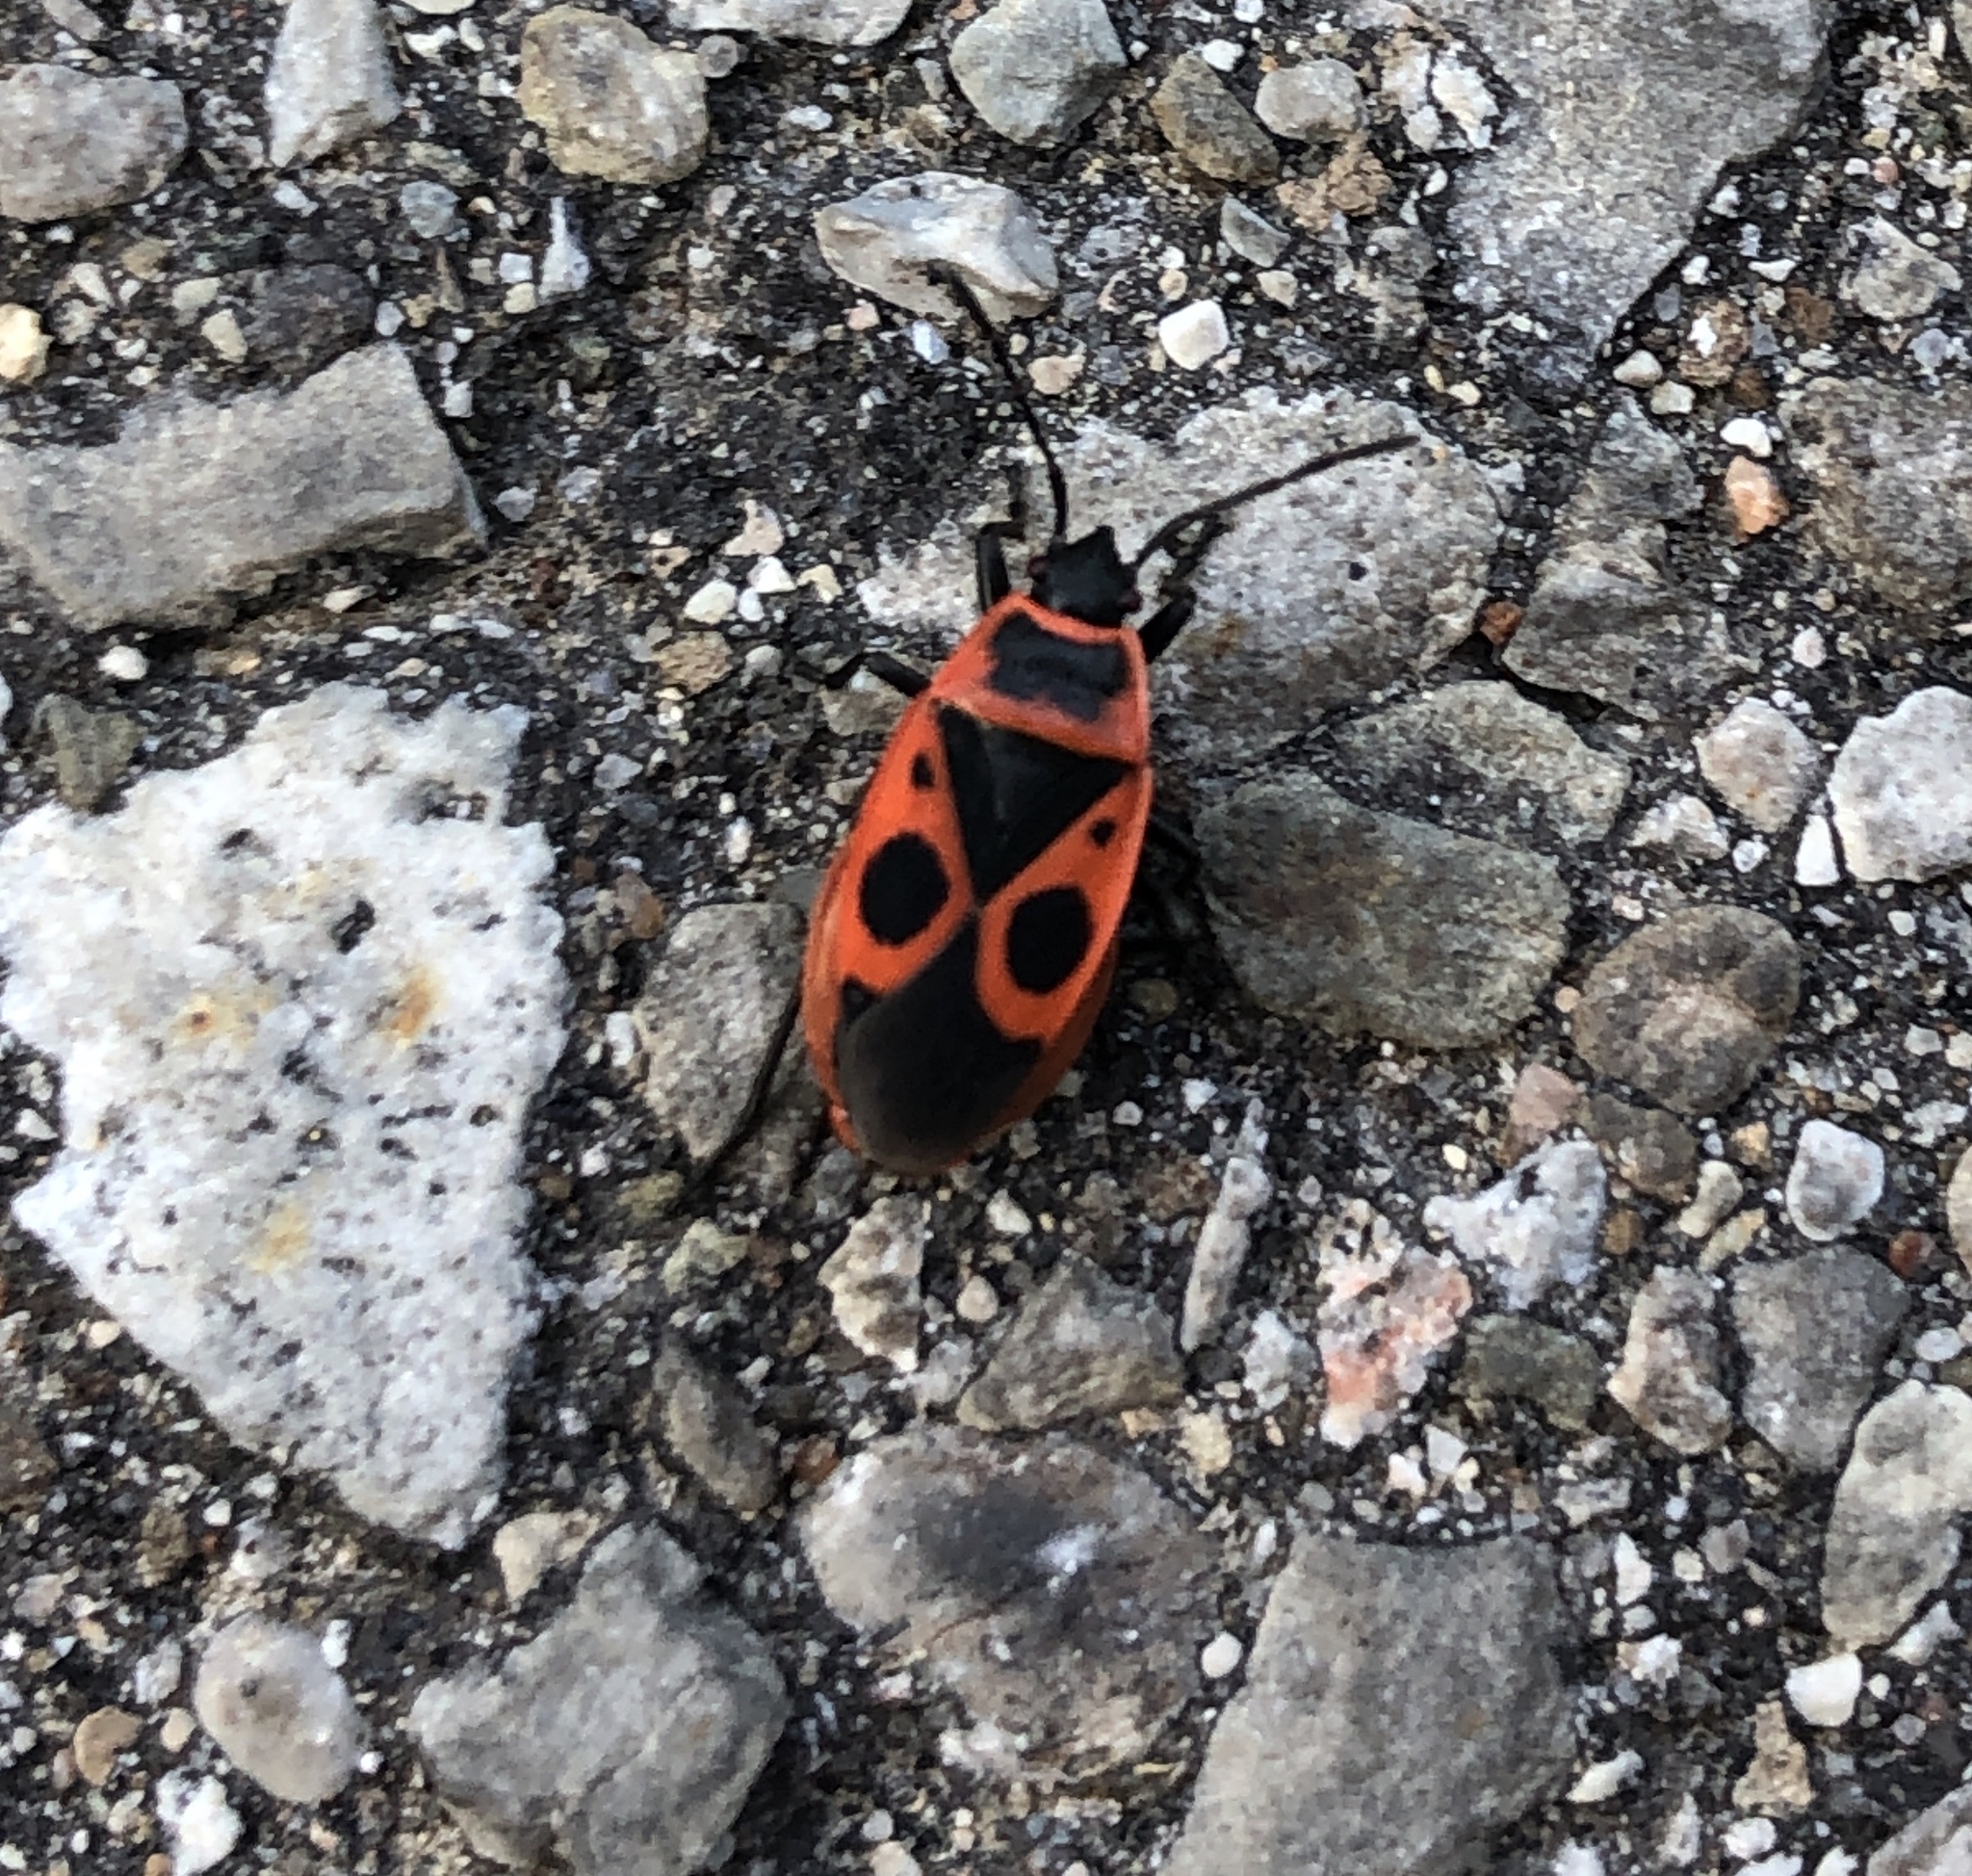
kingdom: Animalia
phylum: Arthropoda
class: Insecta
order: Hemiptera
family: Pyrrhocoridae
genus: Pyrrhocoris
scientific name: Pyrrhocoris apterus
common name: Firebug
